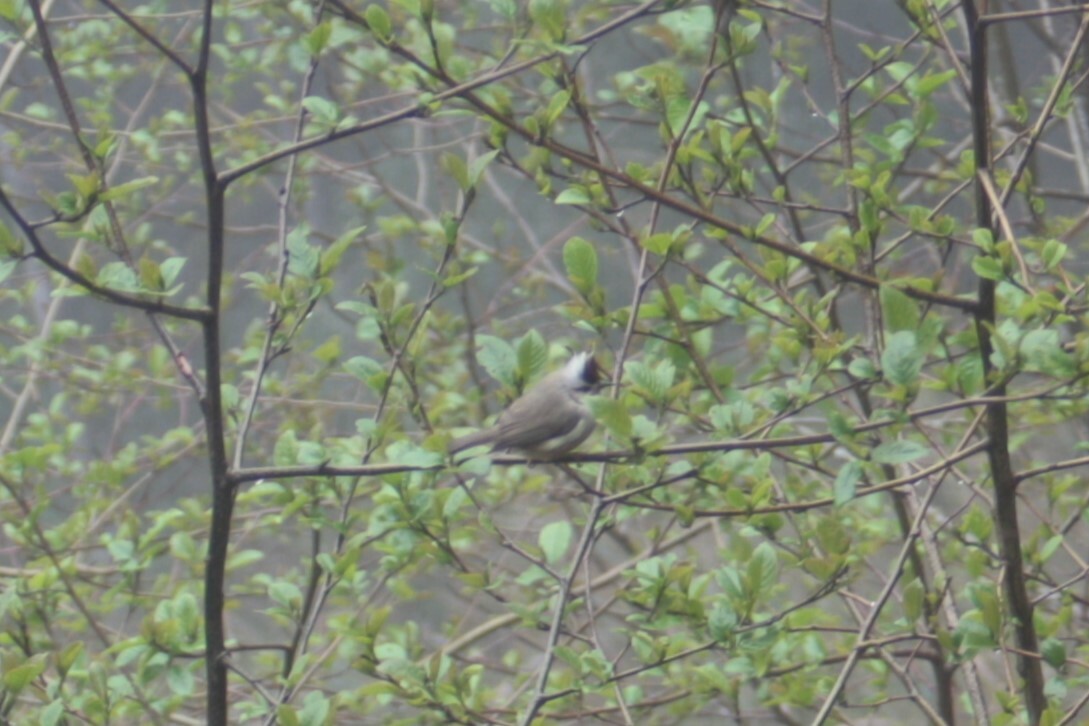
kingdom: Animalia
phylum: Chordata
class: Aves
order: Passeriformes
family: Zosteropidae
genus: Yuhina
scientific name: Yuhina brunneiceps
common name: Taiwan yuhina
